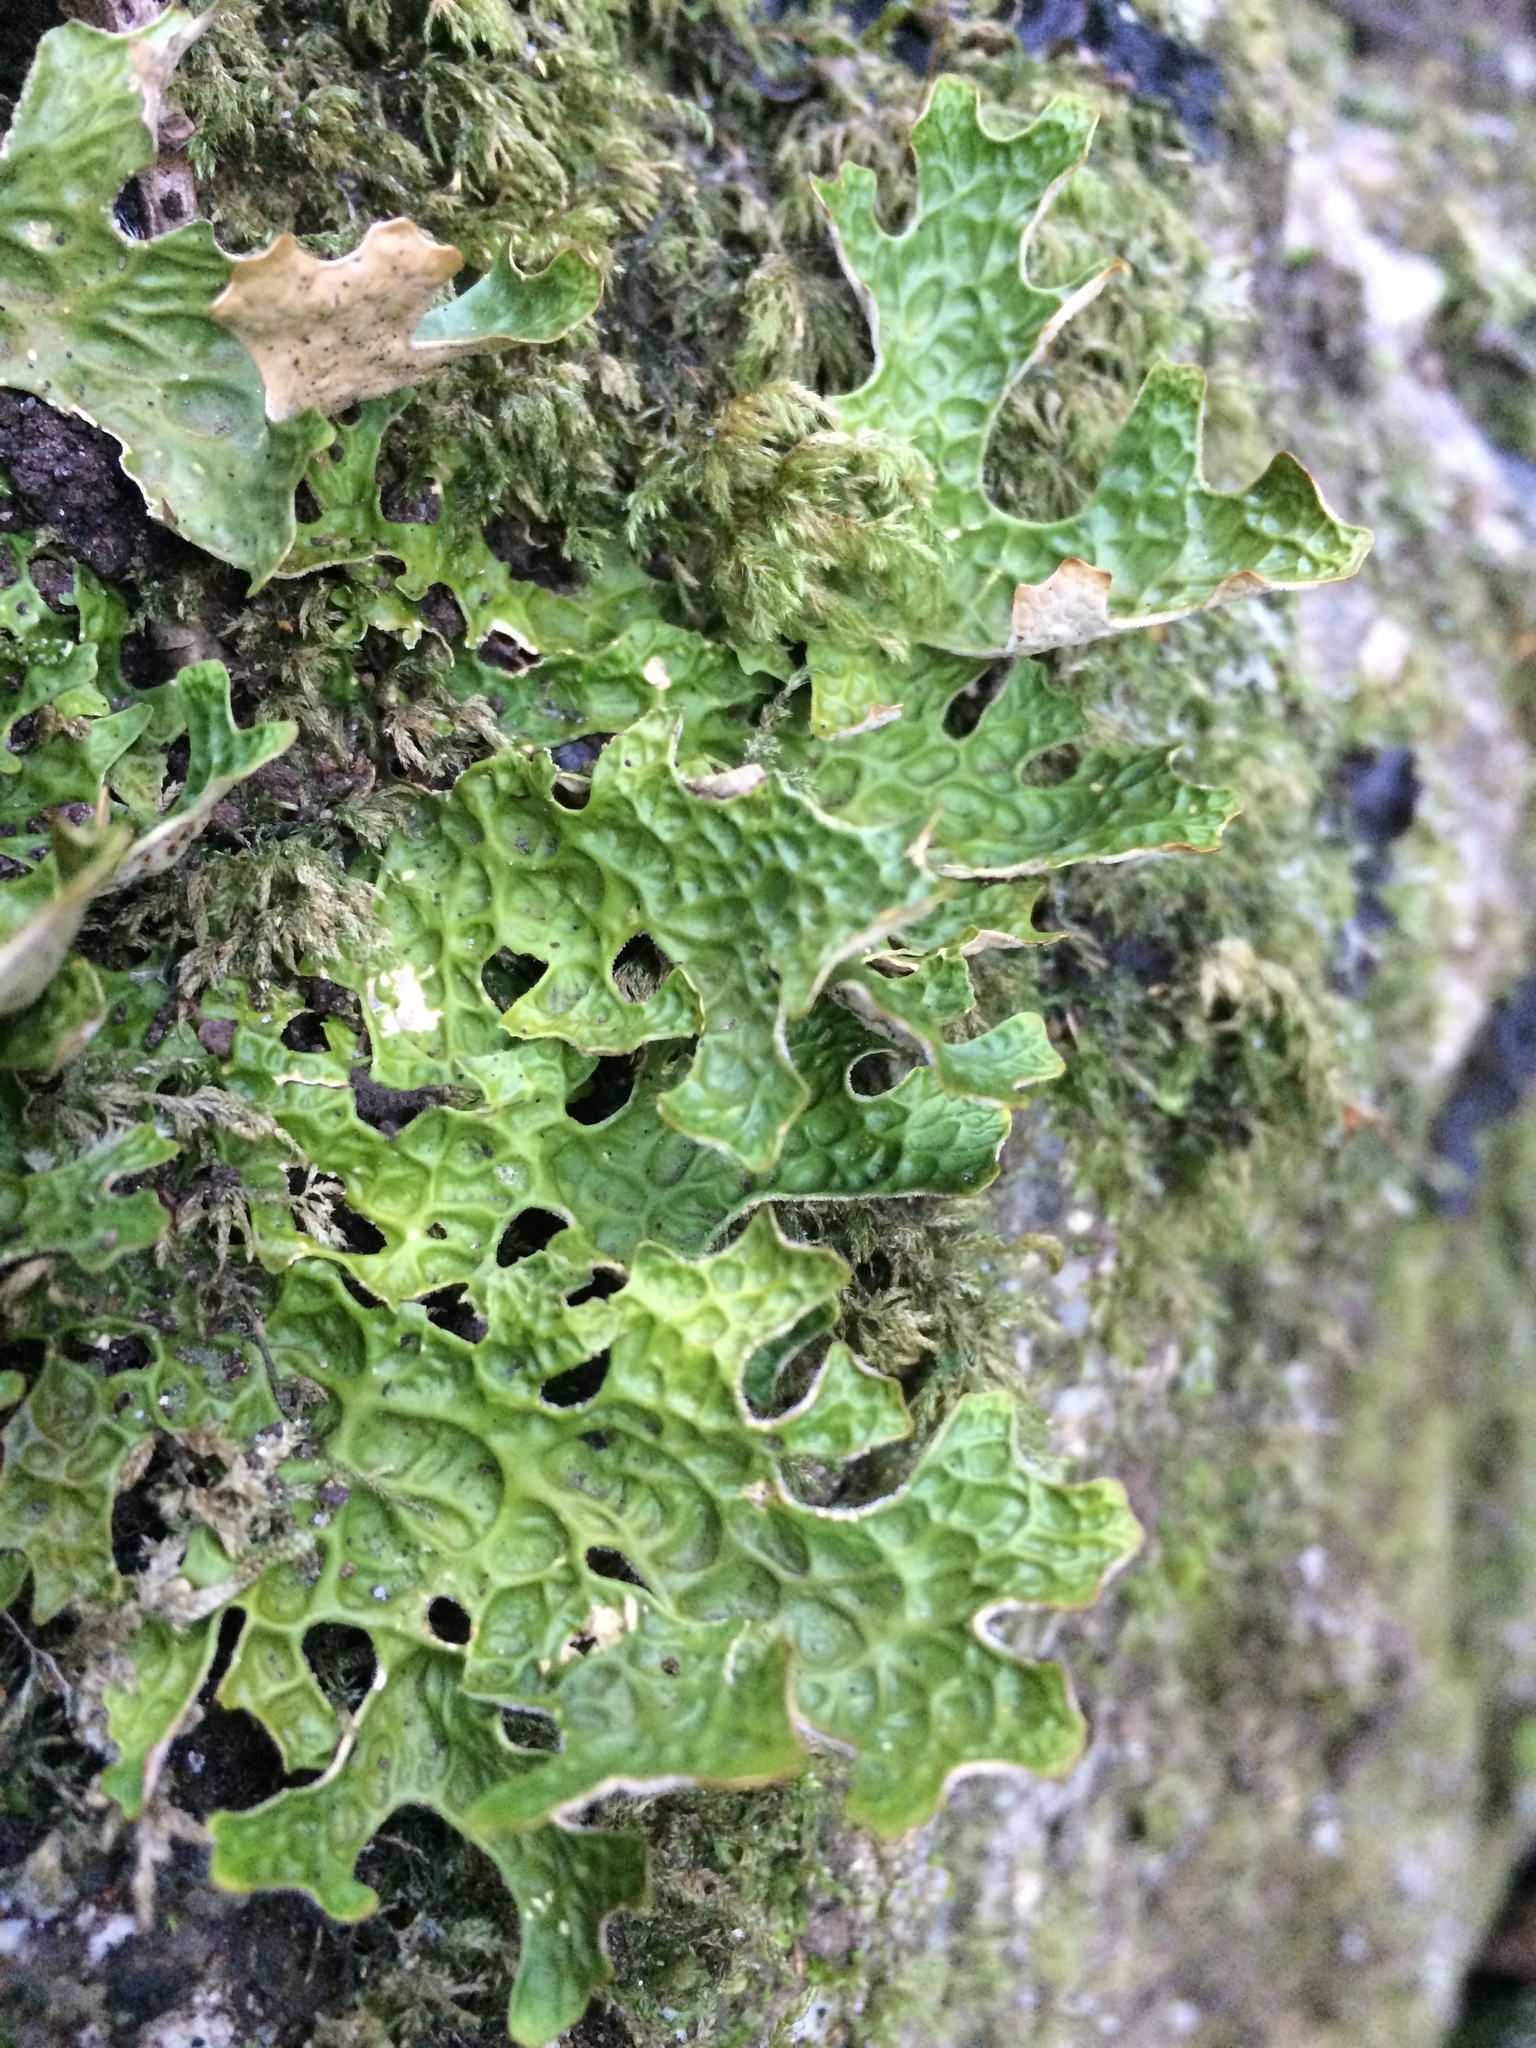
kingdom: Fungi
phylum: Ascomycota
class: Lecanoromycetes
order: Peltigerales
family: Lobariaceae
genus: Lobaria
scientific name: Lobaria pulmonaria
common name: Lungwort
